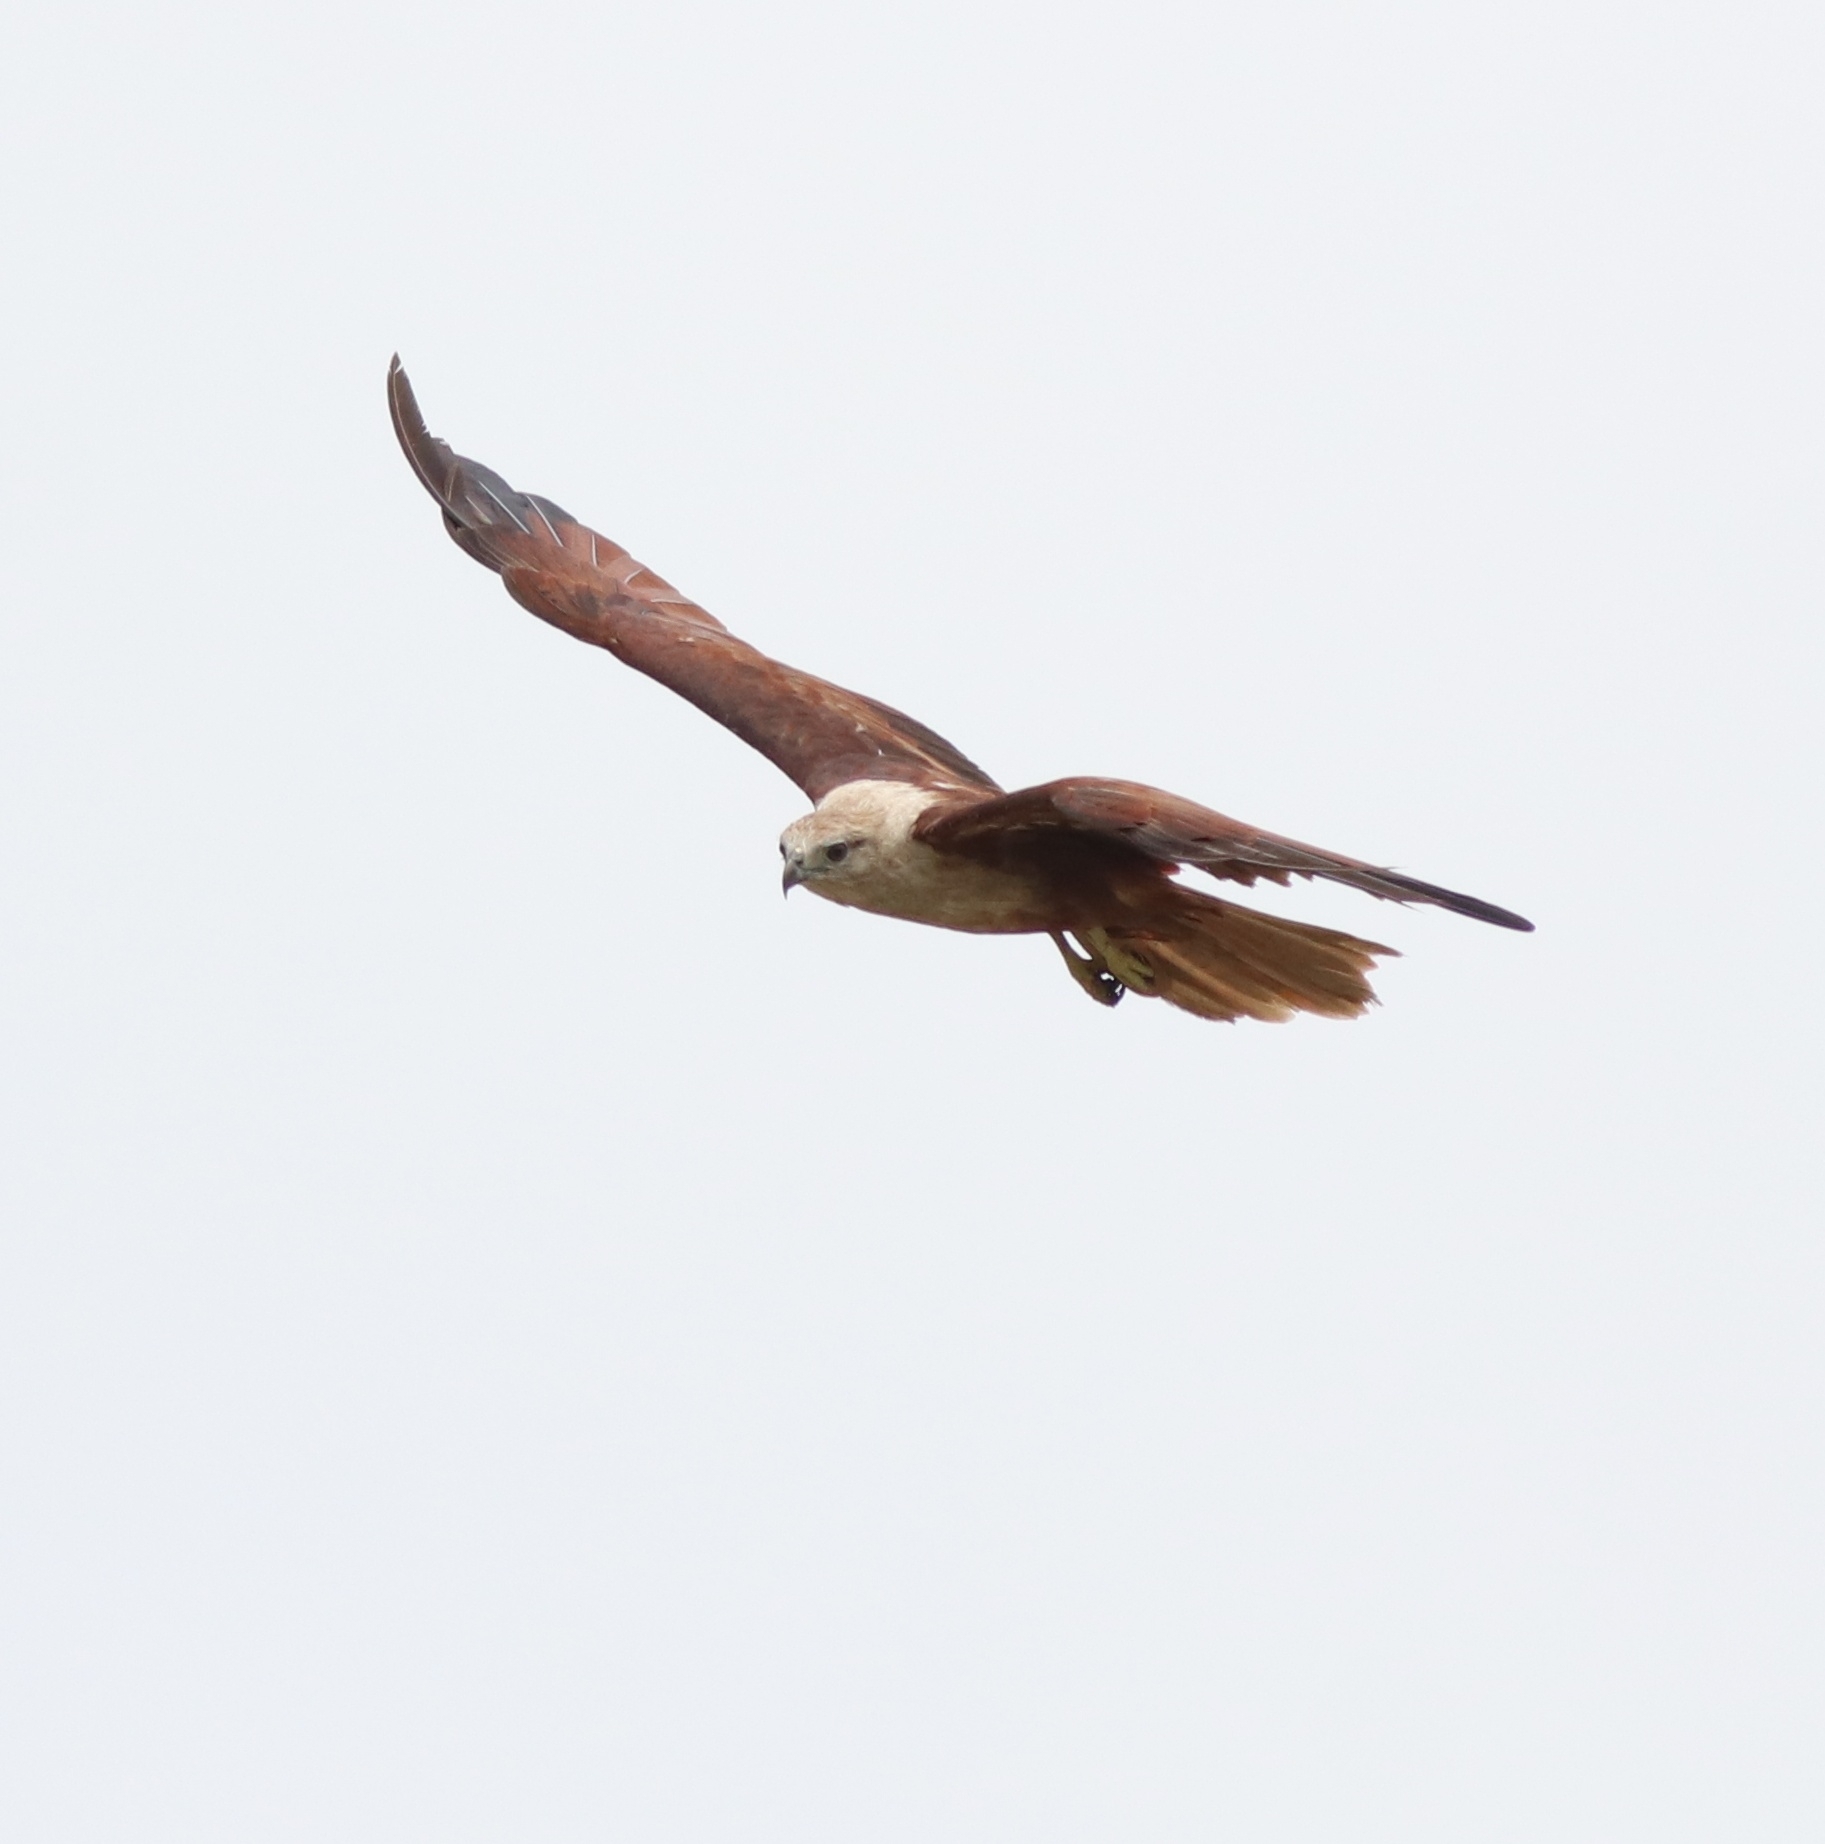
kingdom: Animalia
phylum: Chordata
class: Aves
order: Accipitriformes
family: Accipitridae
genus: Haliastur
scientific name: Haliastur indus
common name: Brahminy kite
